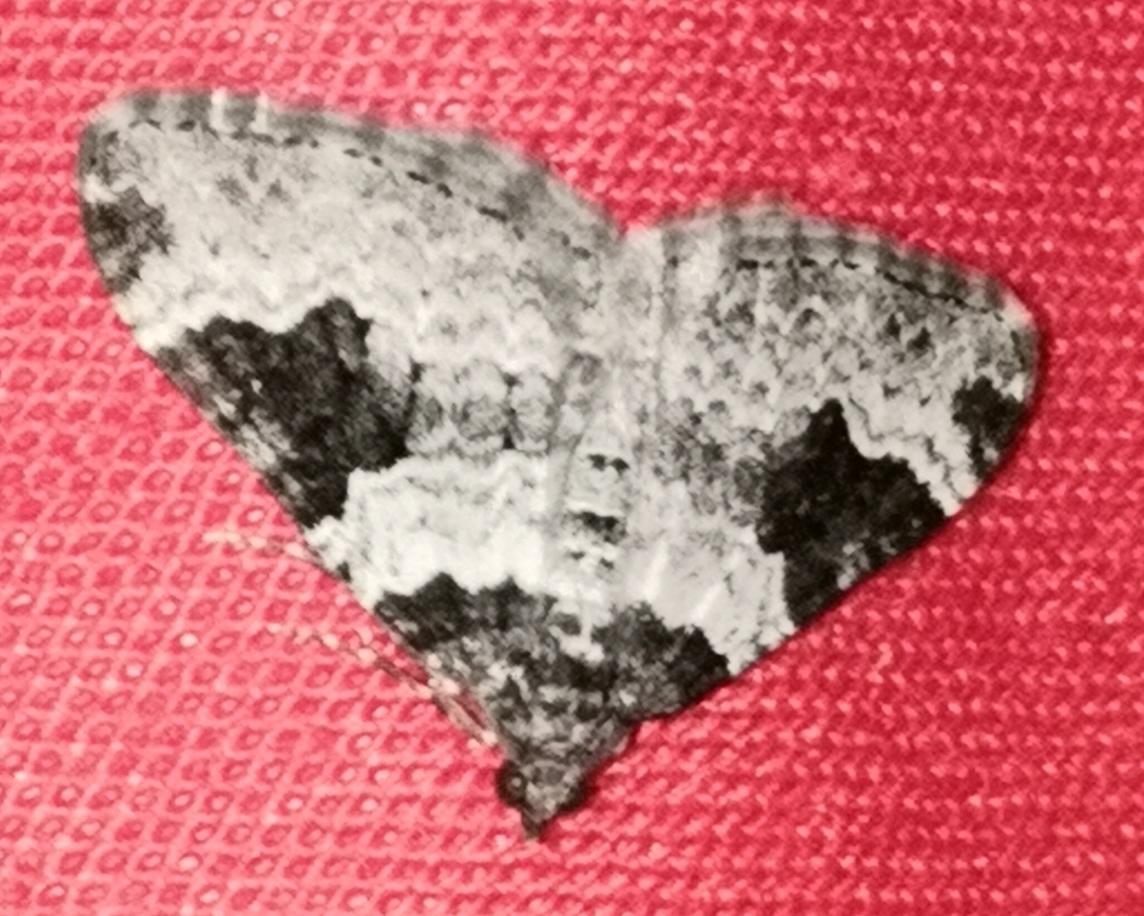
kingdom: Animalia
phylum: Arthropoda
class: Insecta
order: Lepidoptera
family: Geometridae
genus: Xanthorhoe
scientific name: Xanthorhoe fluctuata
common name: Garden carpet
